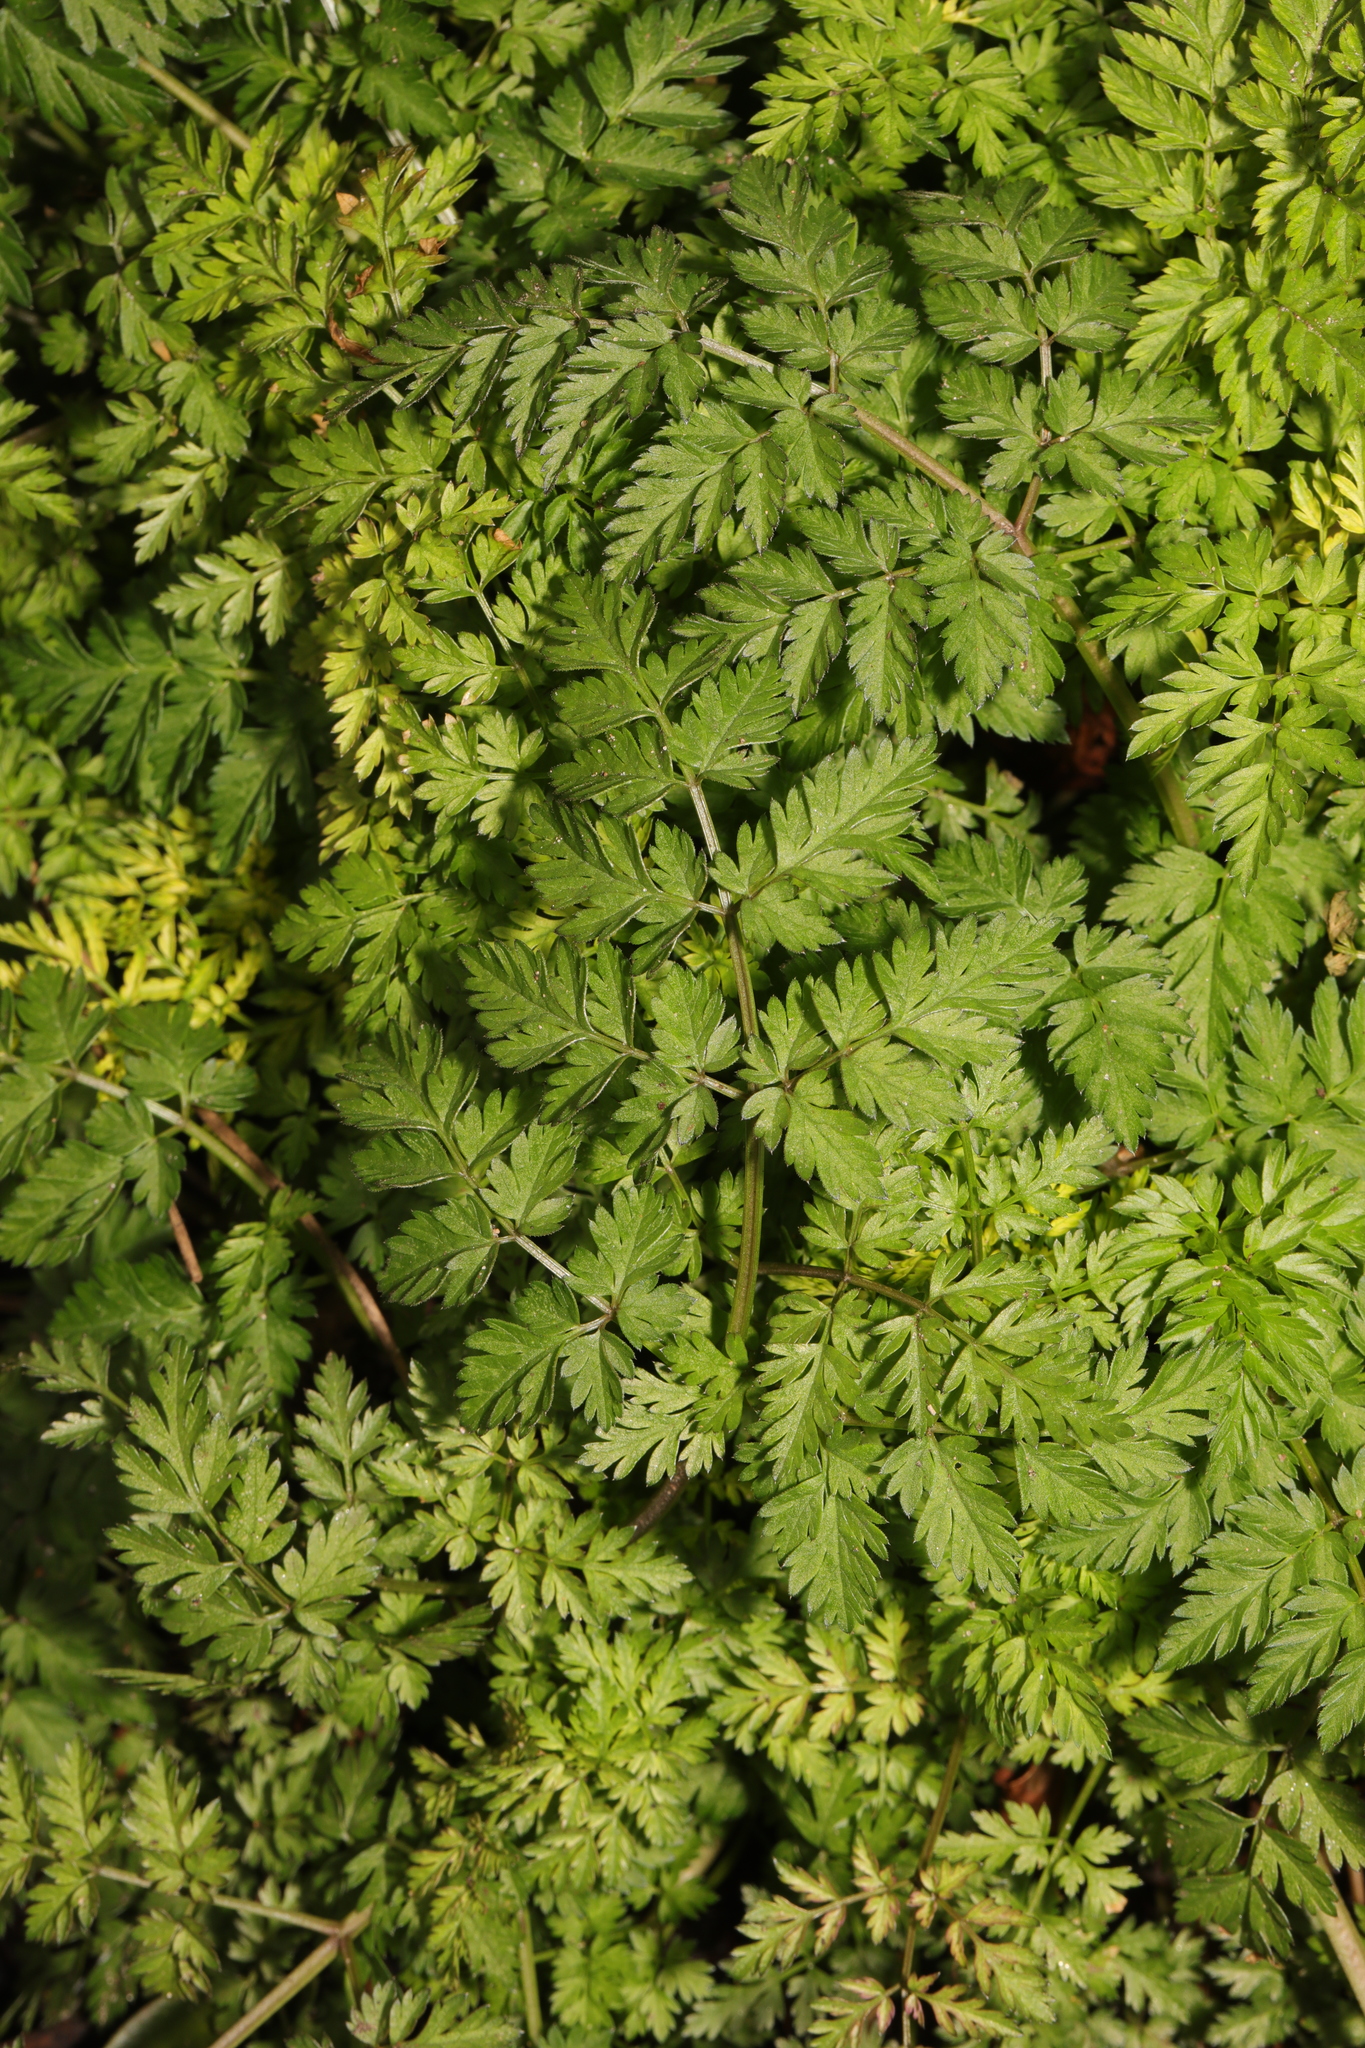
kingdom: Plantae
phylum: Tracheophyta
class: Magnoliopsida
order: Apiales
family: Apiaceae
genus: Anthriscus
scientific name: Anthriscus sylvestris
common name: Cow parsley
